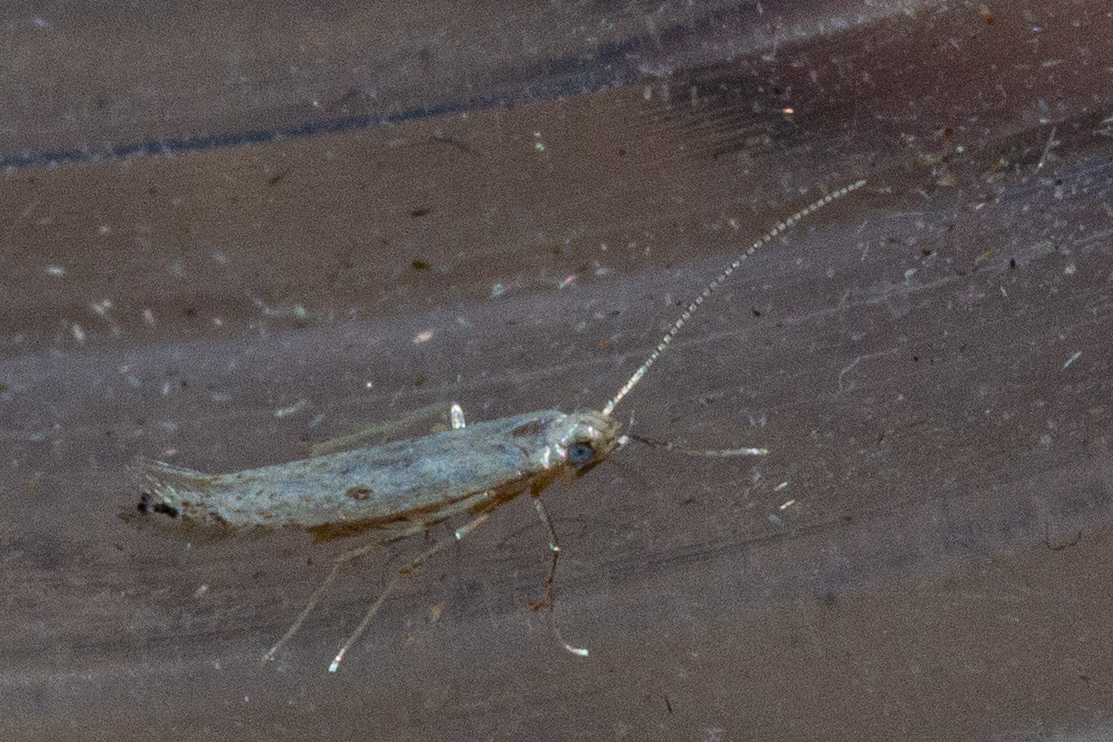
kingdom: Animalia
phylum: Arthropoda
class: Insecta
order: Lepidoptera
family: Batrachedridae
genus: Batrachedra
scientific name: Batrachedra psithyra
